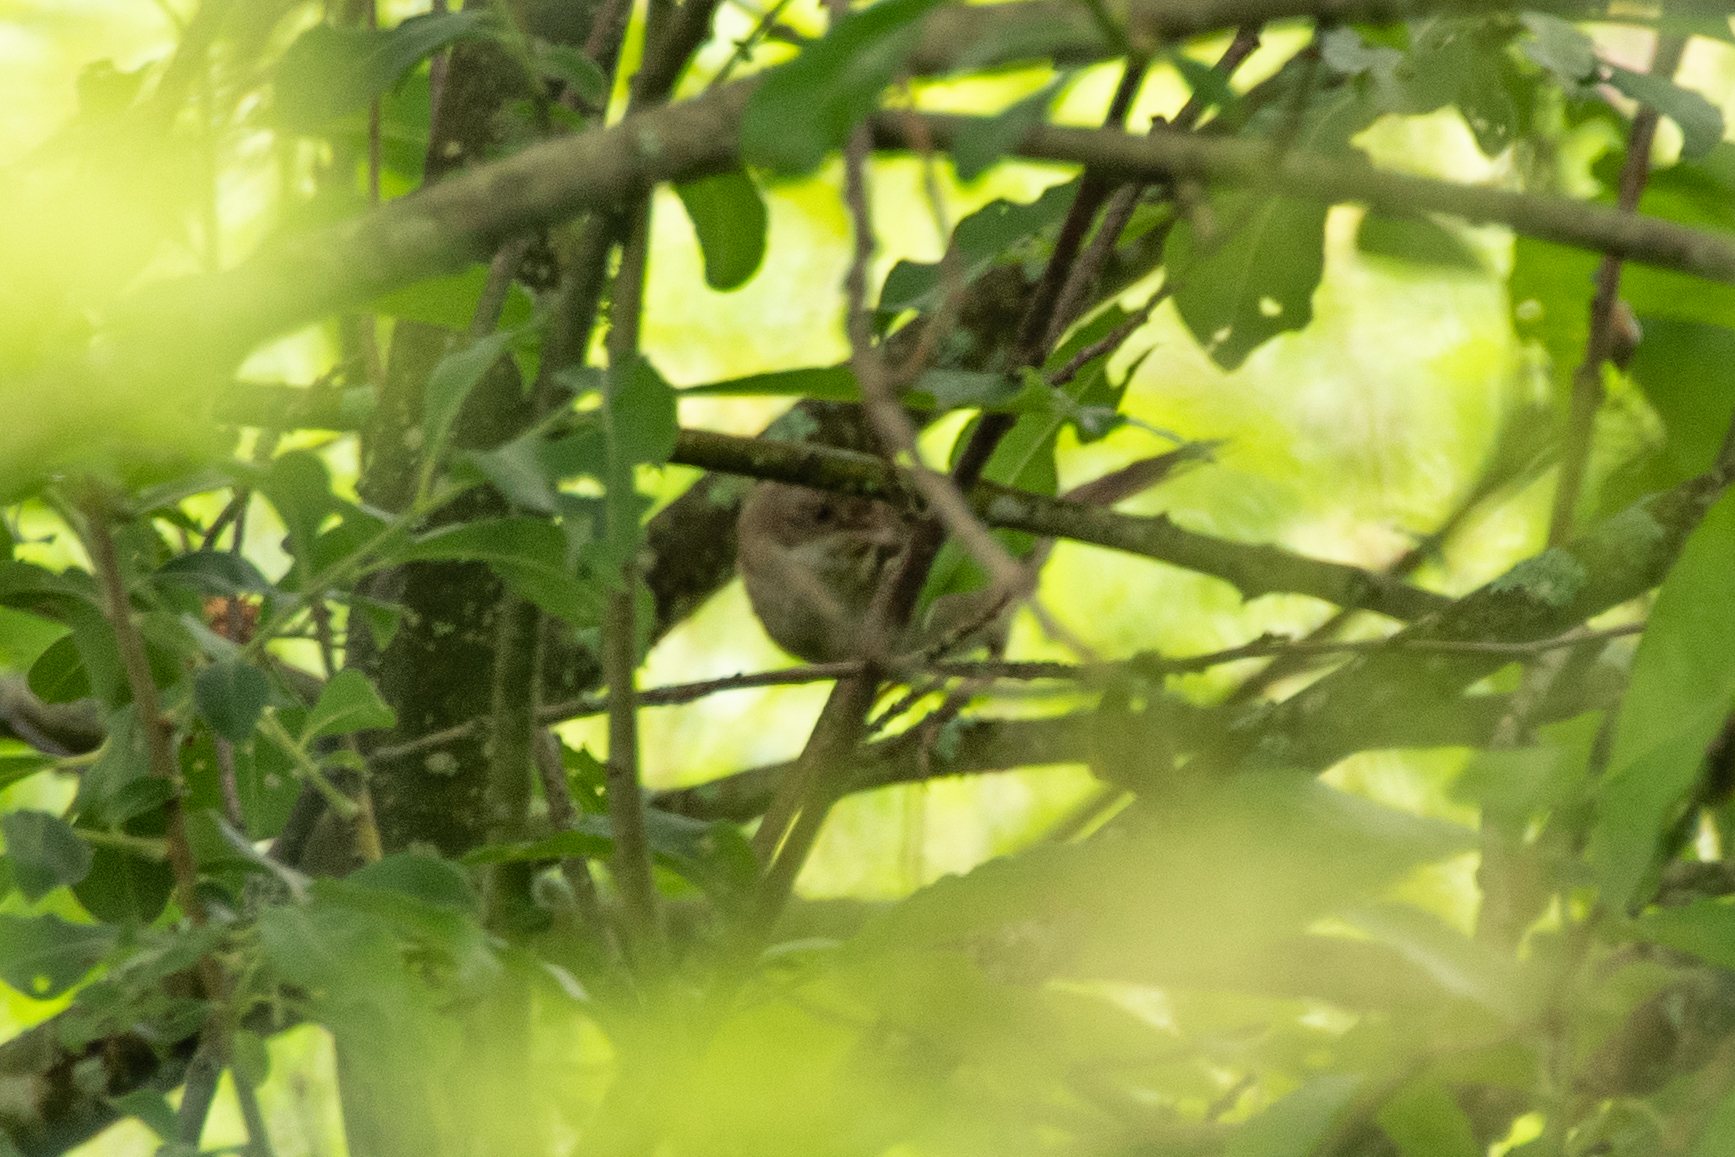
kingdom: Animalia
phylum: Chordata
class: Aves
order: Passeriformes
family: Sylviidae
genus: Sylvia
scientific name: Sylvia communis
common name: Common whitethroat
